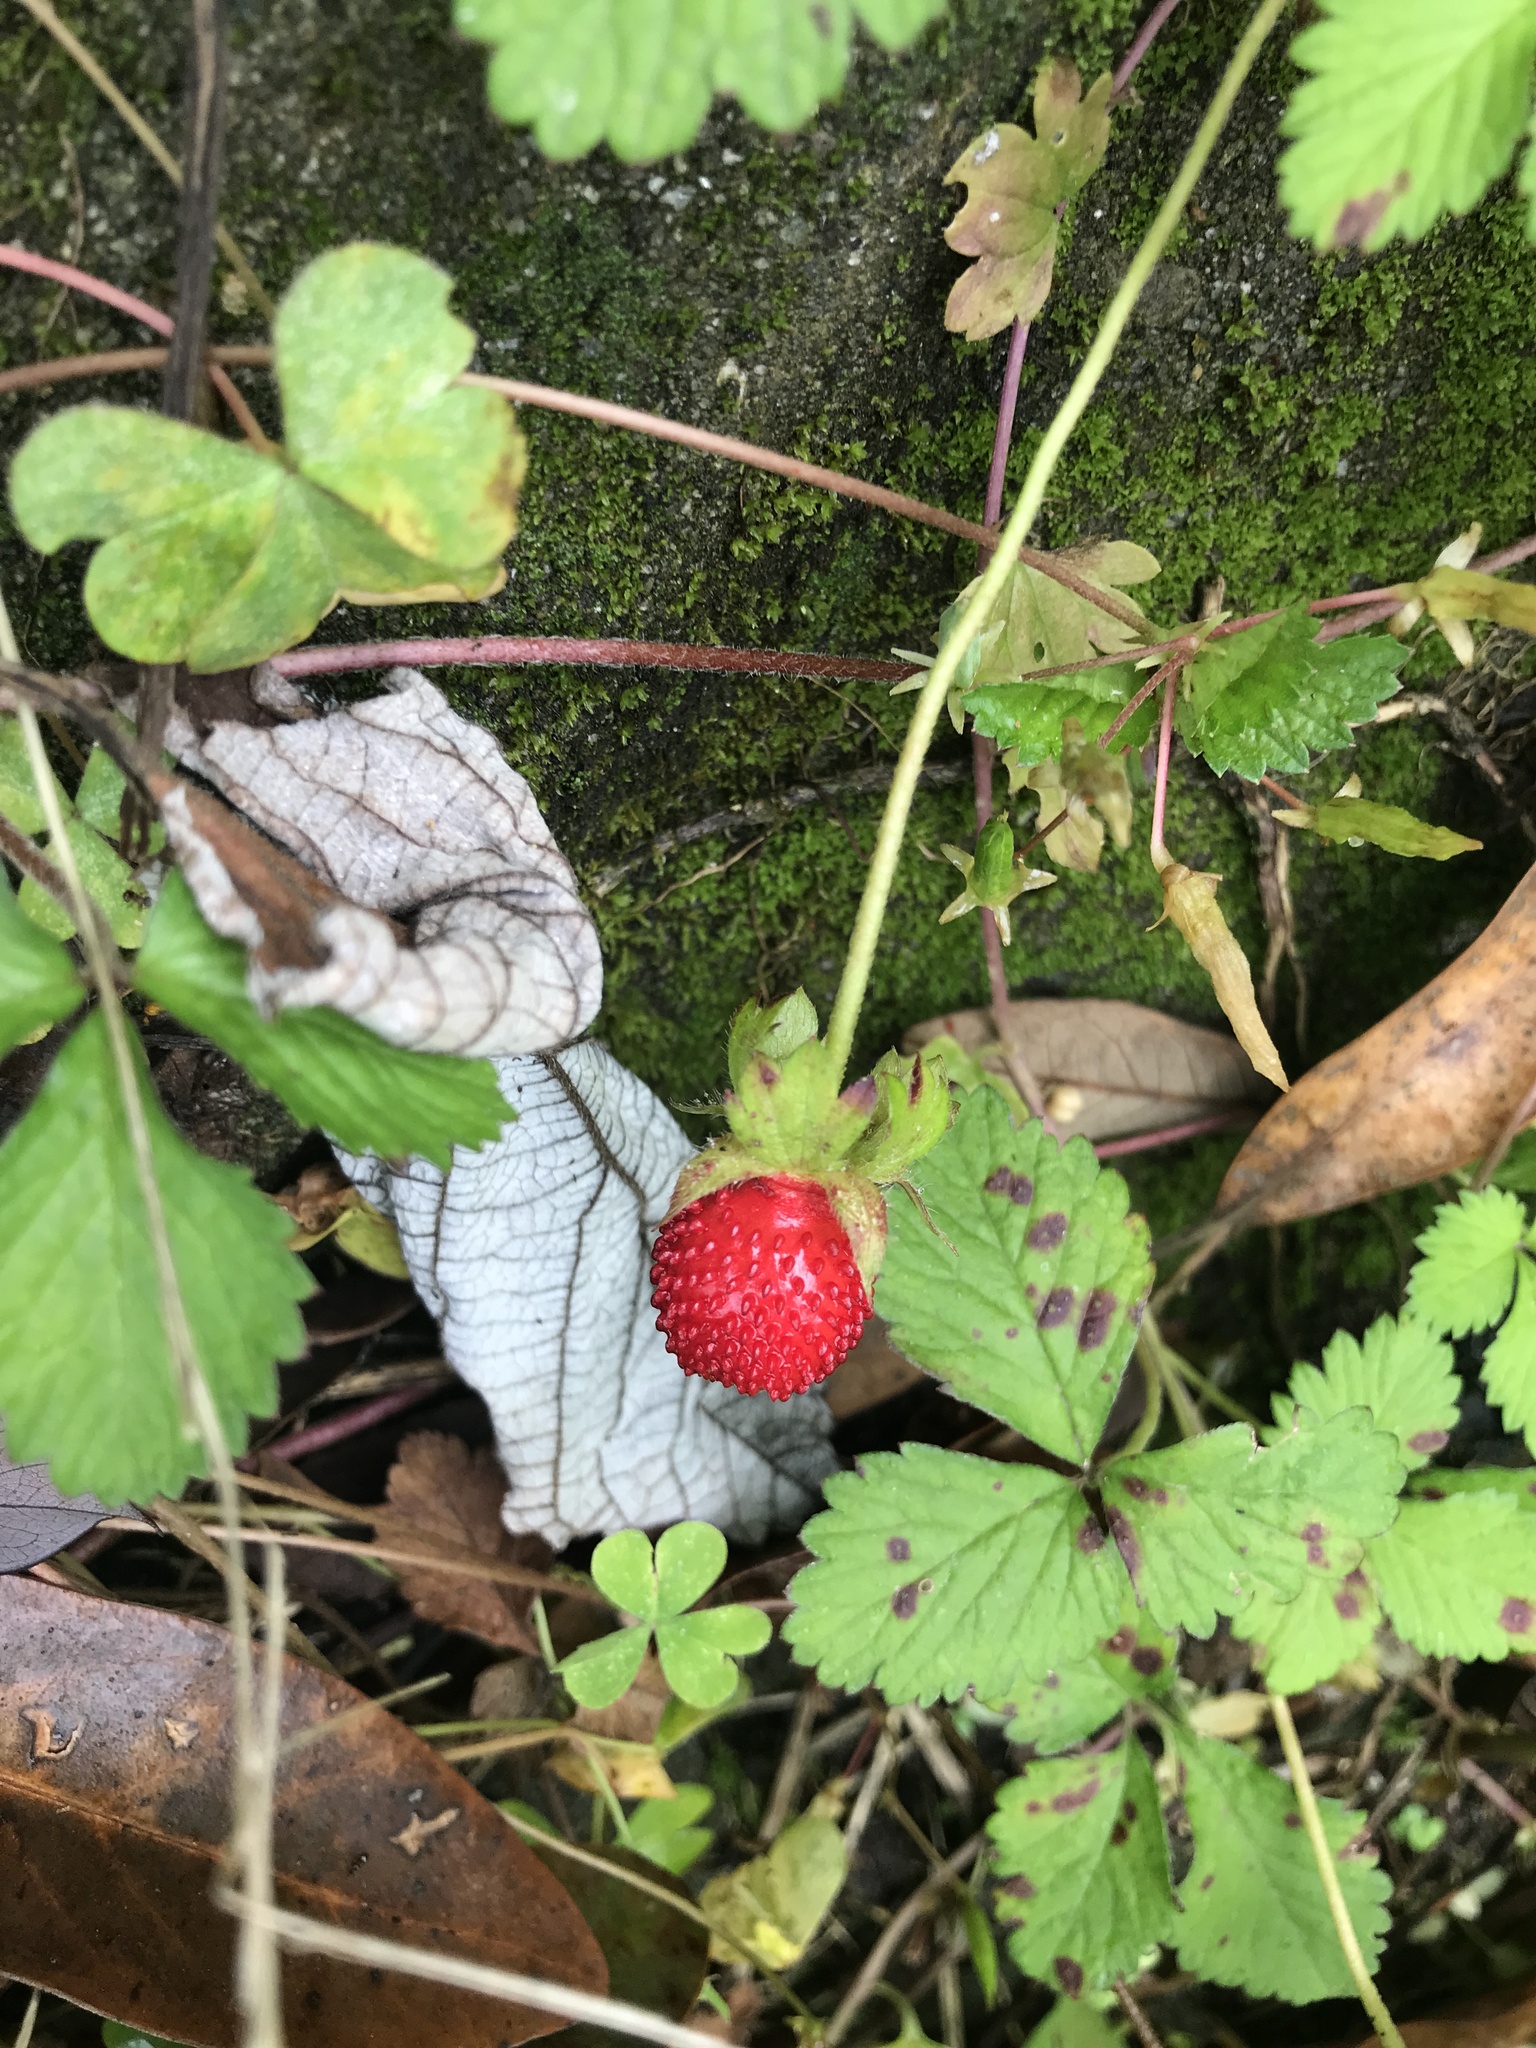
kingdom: Plantae
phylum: Tracheophyta
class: Magnoliopsida
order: Rosales
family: Rosaceae
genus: Potentilla
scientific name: Potentilla indica
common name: Yellow-flowered strawberry
